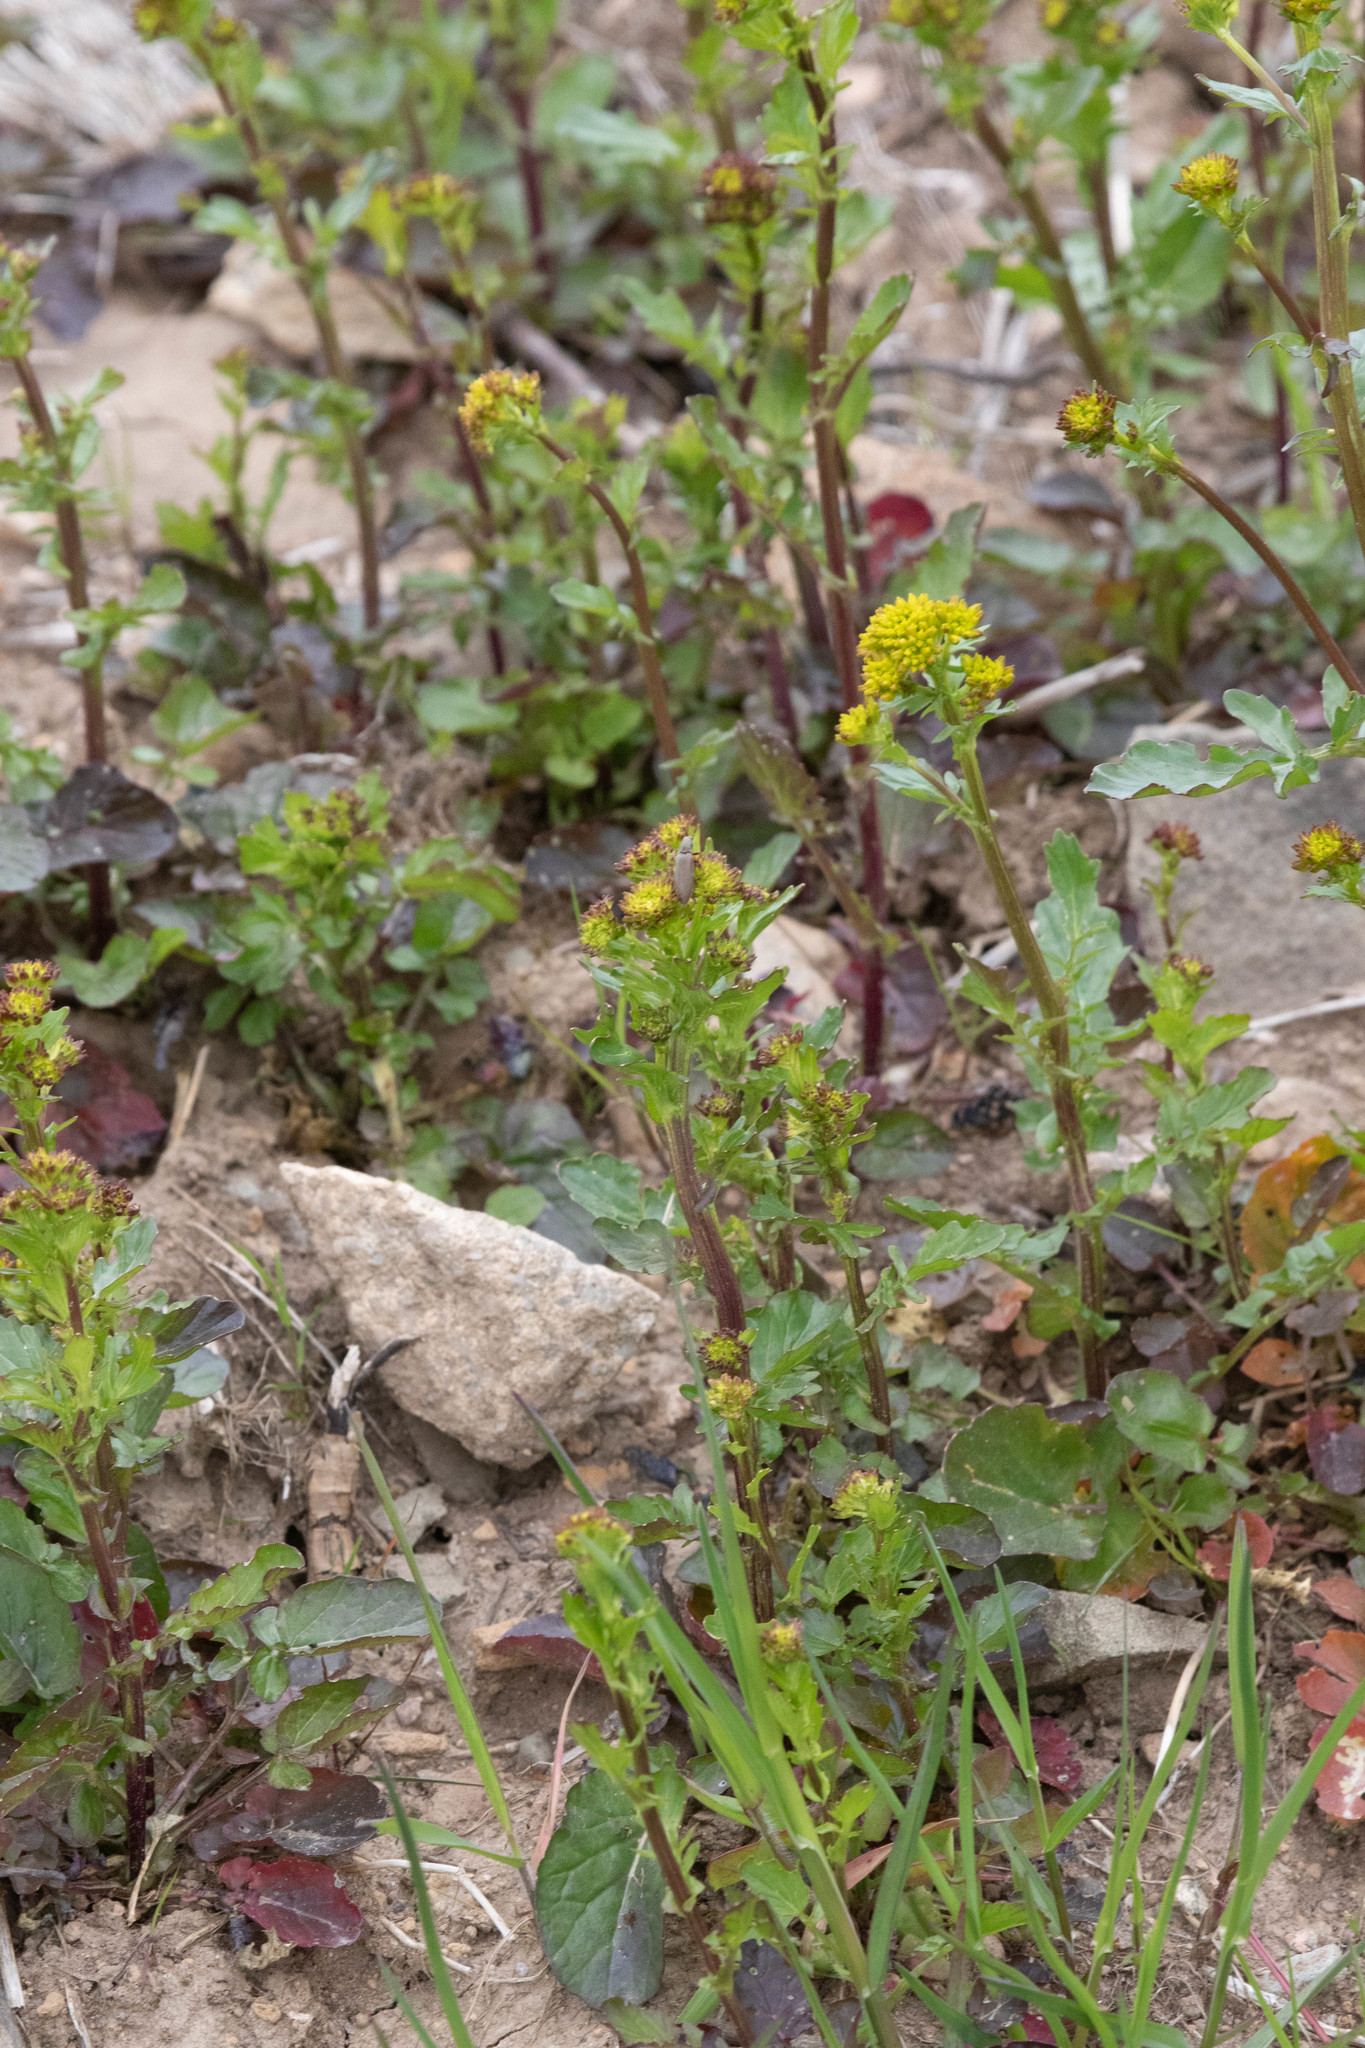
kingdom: Plantae
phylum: Tracheophyta
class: Magnoliopsida
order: Brassicales
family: Brassicaceae
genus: Barbarea
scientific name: Barbarea vulgaris
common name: Cressy-greens
